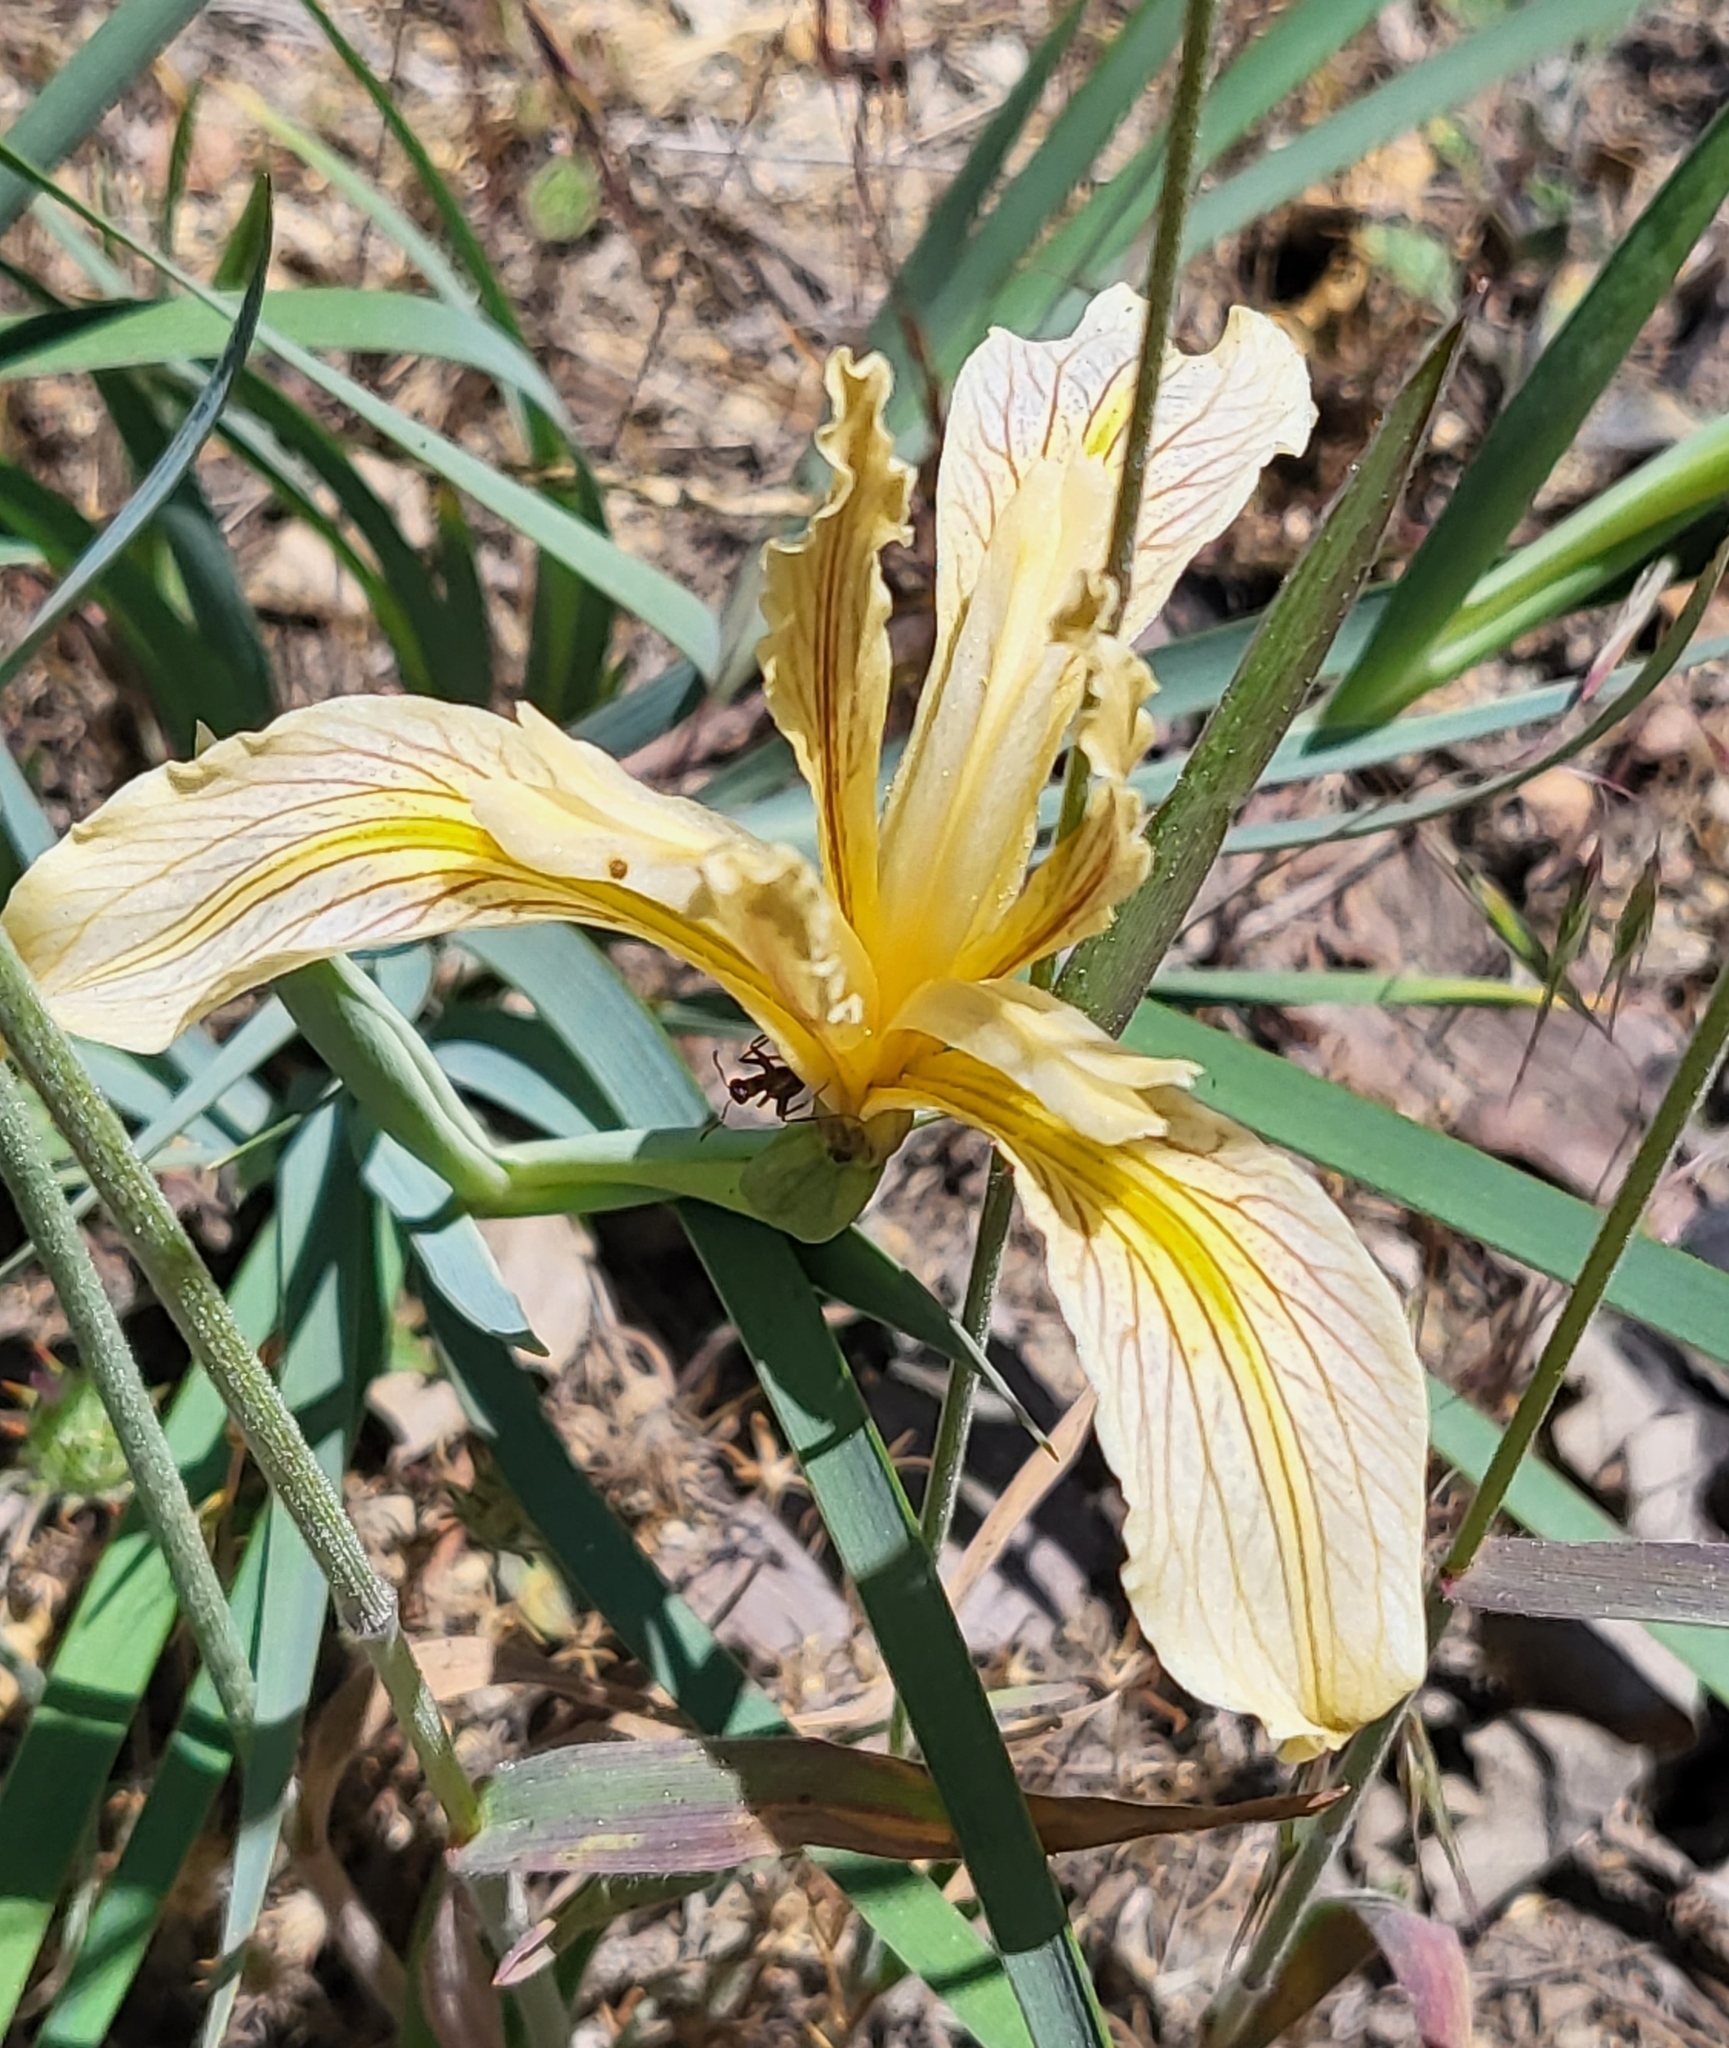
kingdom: Plantae
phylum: Tracheophyta
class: Liliopsida
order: Asparagales
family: Iridaceae
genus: Iris
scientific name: Iris hartwegii
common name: Sierra iris
